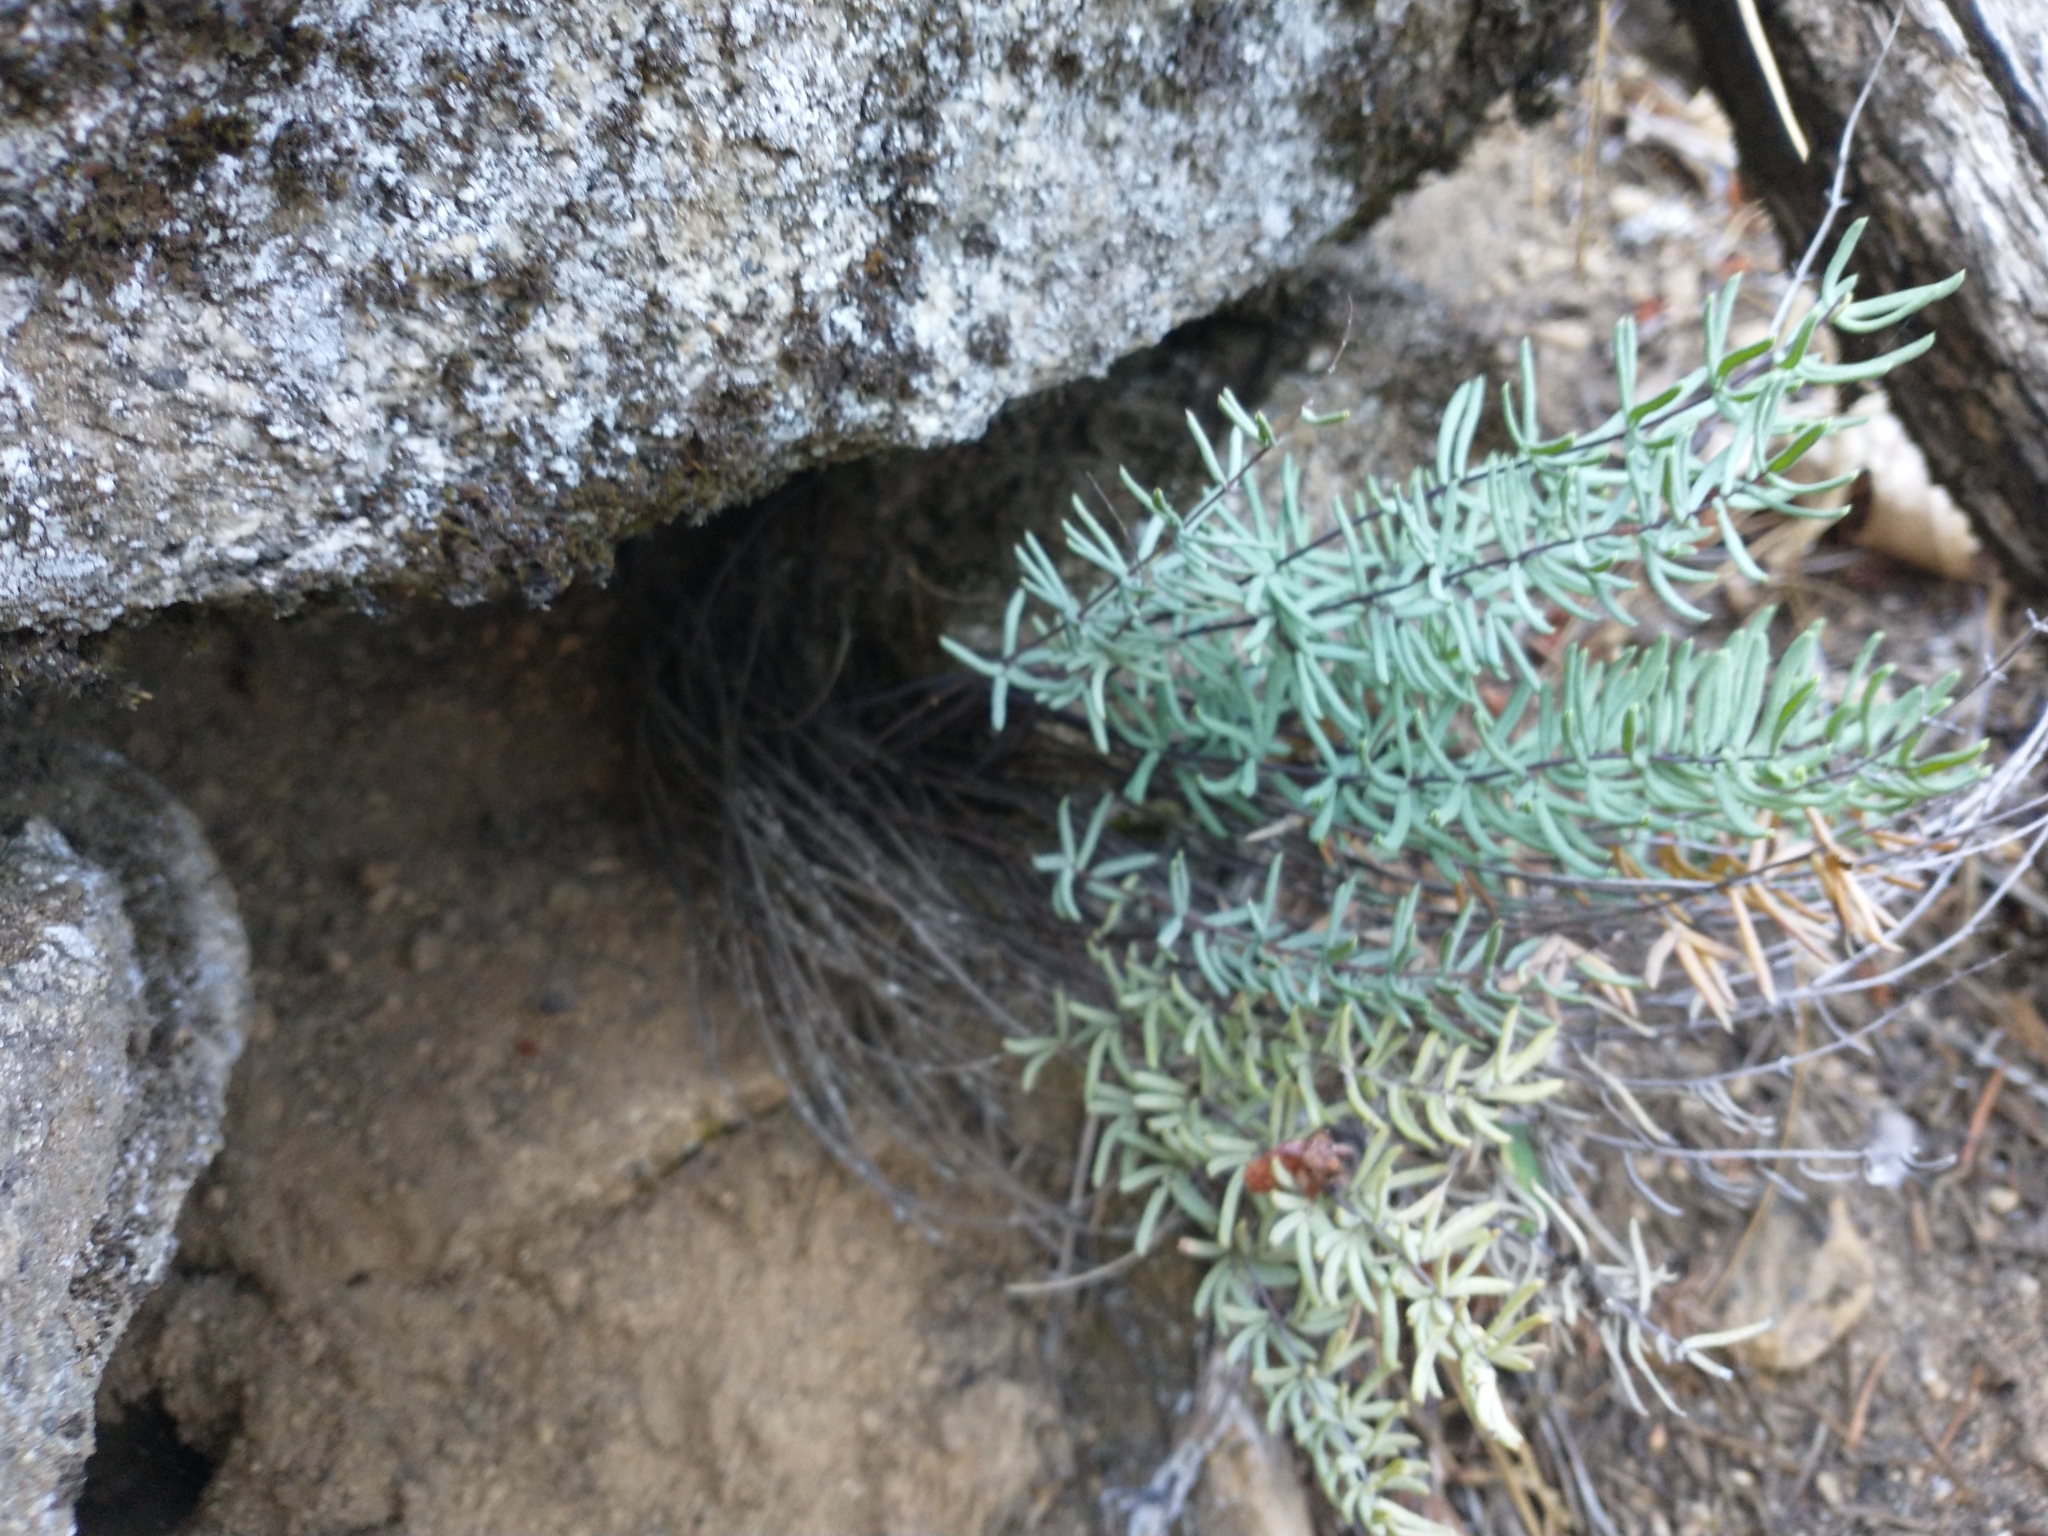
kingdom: Plantae
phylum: Tracheophyta
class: Polypodiopsida
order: Polypodiales
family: Pteridaceae
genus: Pellaea
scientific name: Pellaea brachyptera
